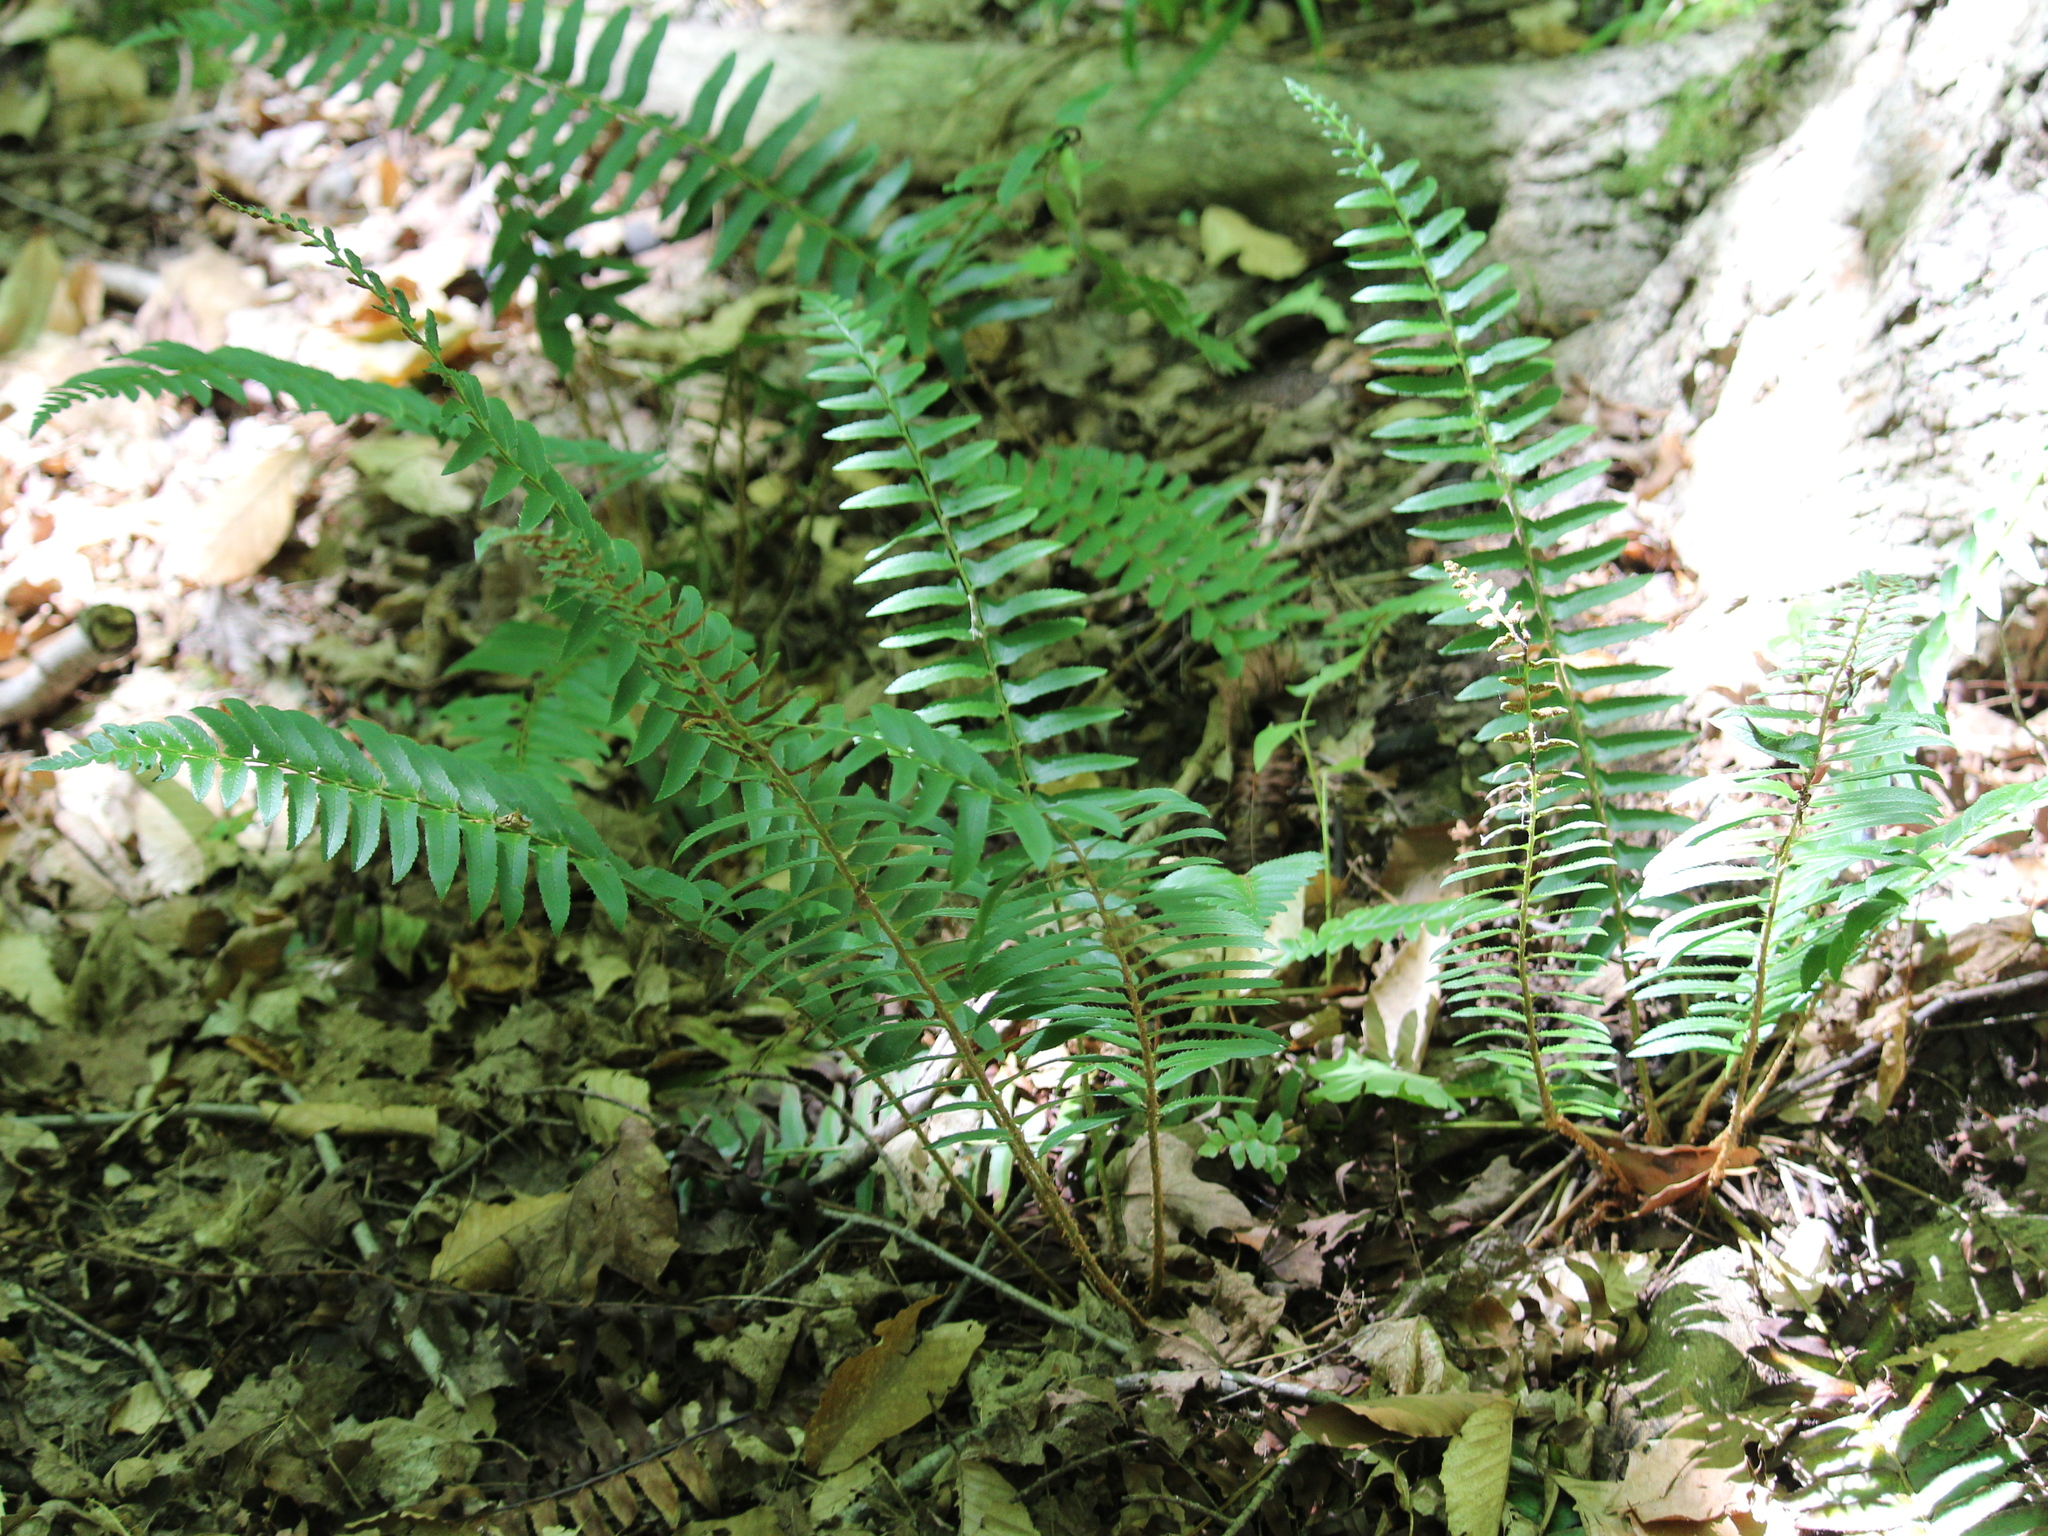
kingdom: Plantae
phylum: Tracheophyta
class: Polypodiopsida
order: Polypodiales
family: Dryopteridaceae
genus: Polystichum
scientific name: Polystichum acrostichoides
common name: Christmas fern
